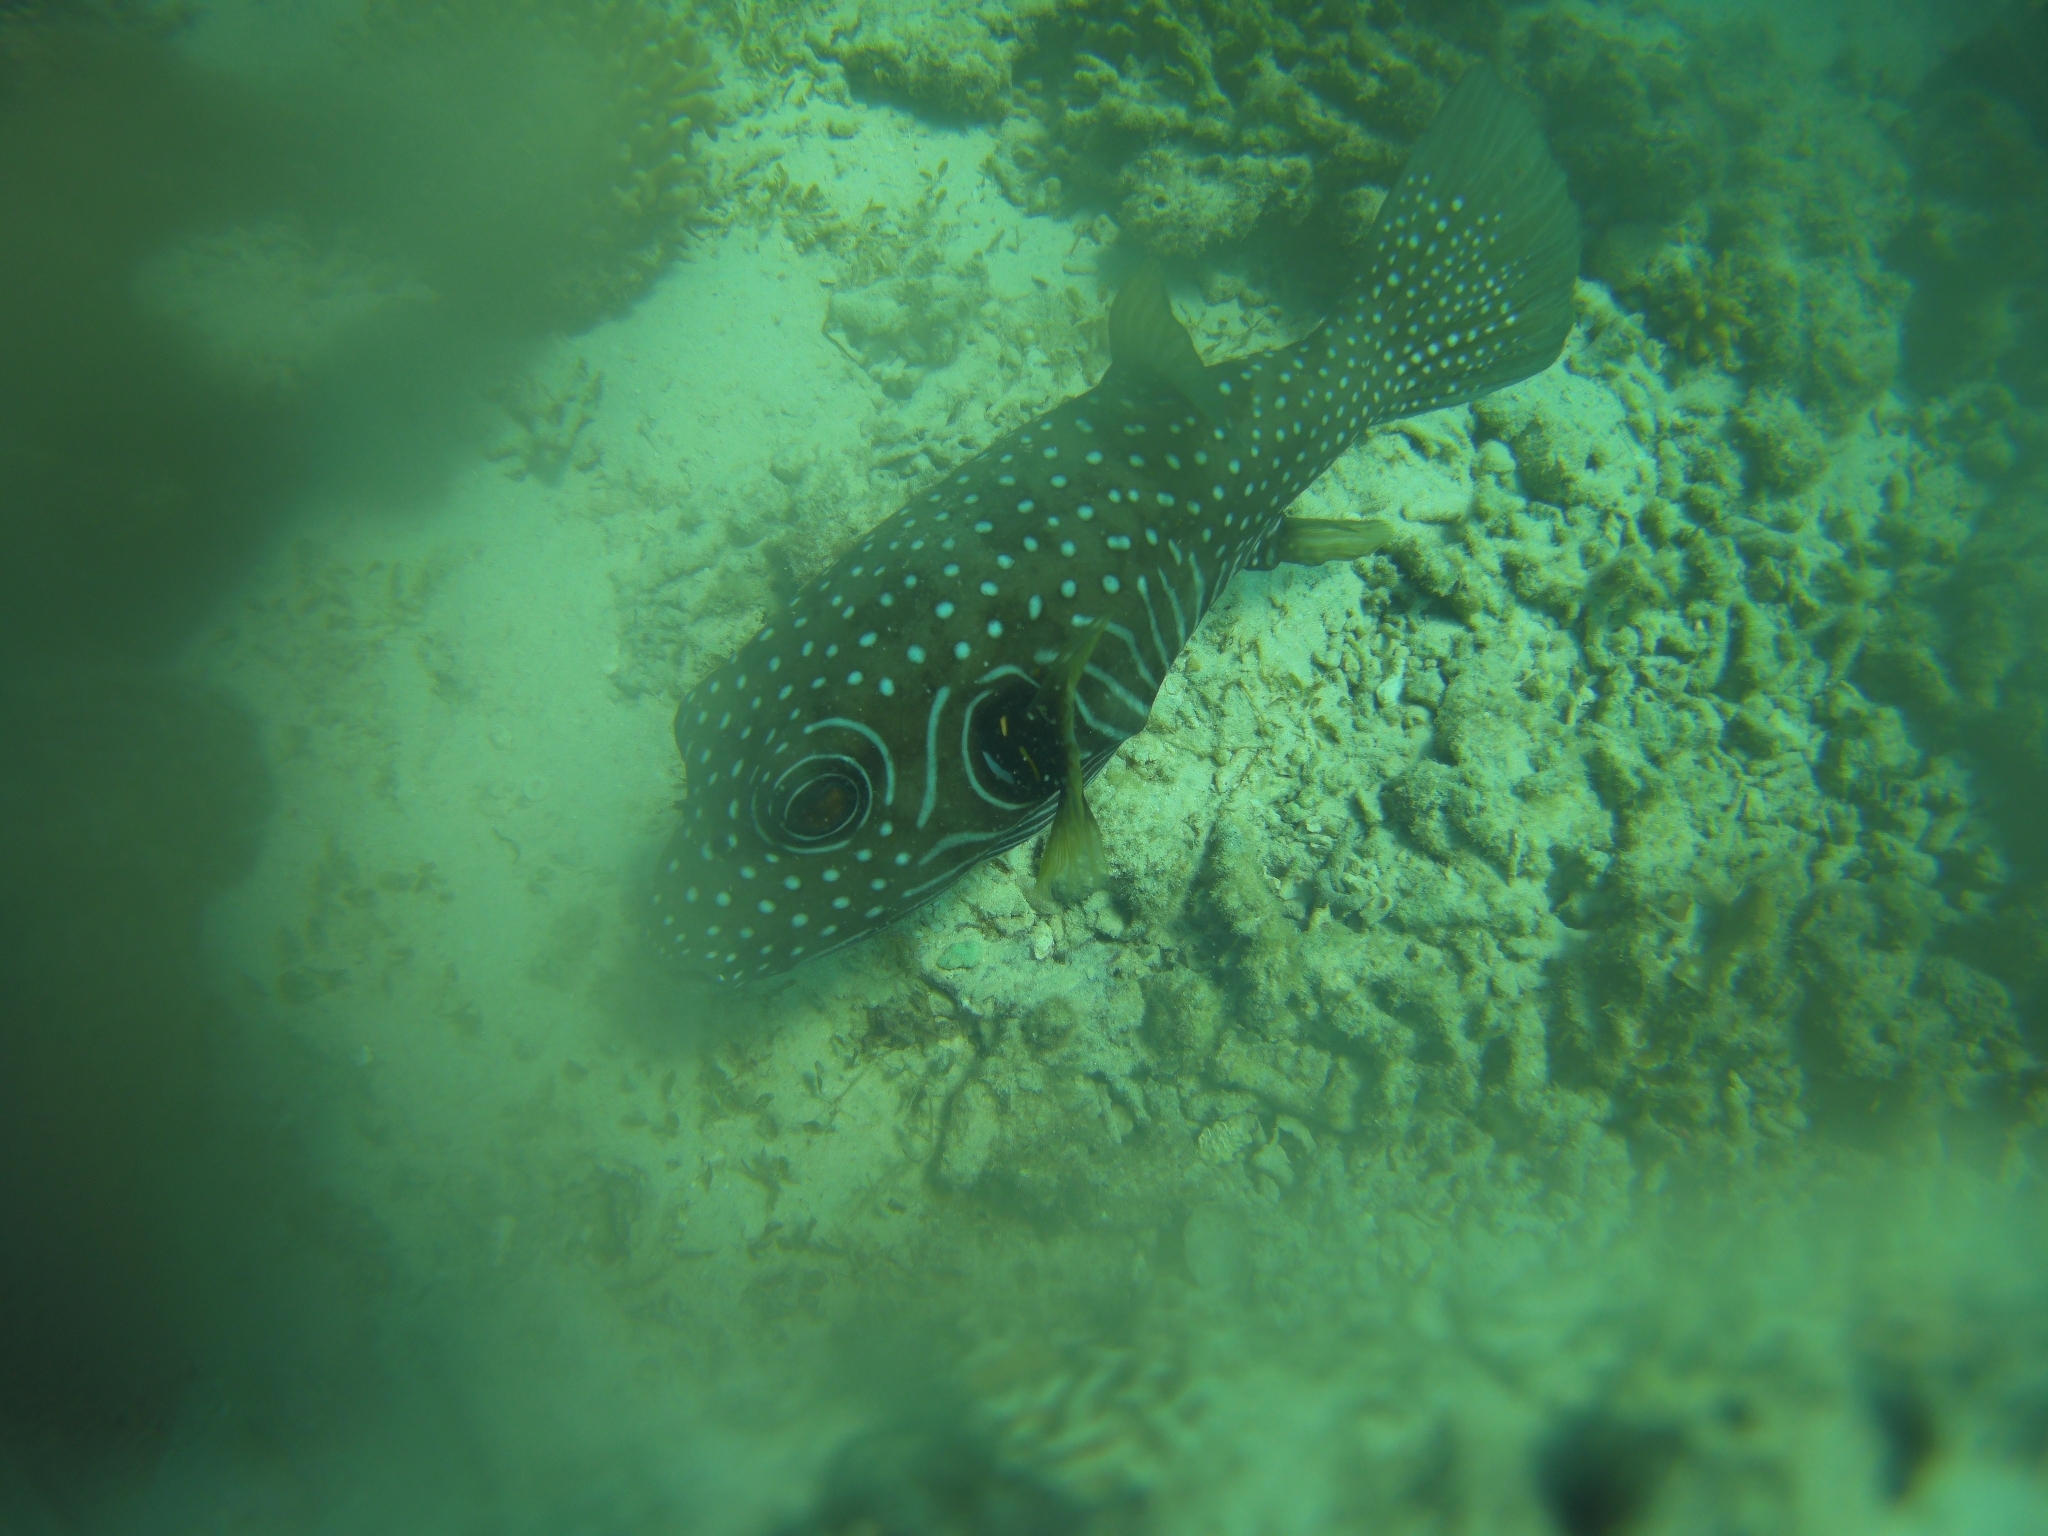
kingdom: Animalia
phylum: Chordata
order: Tetraodontiformes
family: Tetraodontidae
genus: Arothron
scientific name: Arothron hispidus
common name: Stripebelly puffer
